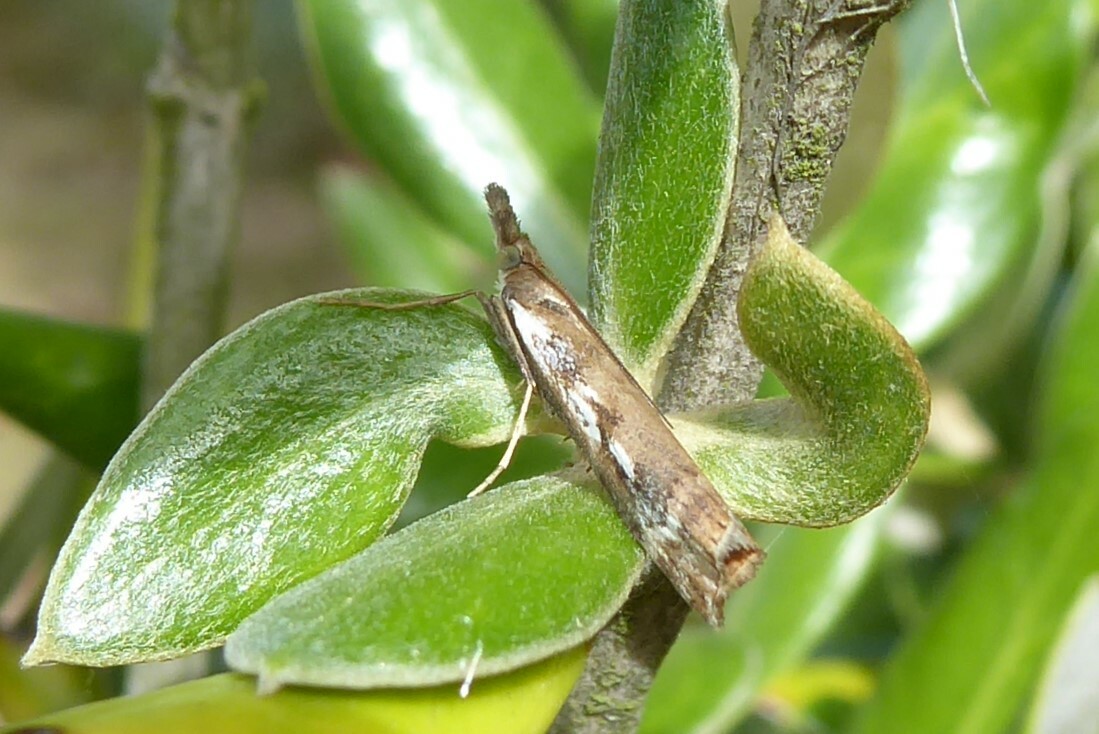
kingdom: Animalia
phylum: Arthropoda
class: Insecta
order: Lepidoptera
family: Crambidae
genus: Orocrambus
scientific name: Orocrambus vulgaris
